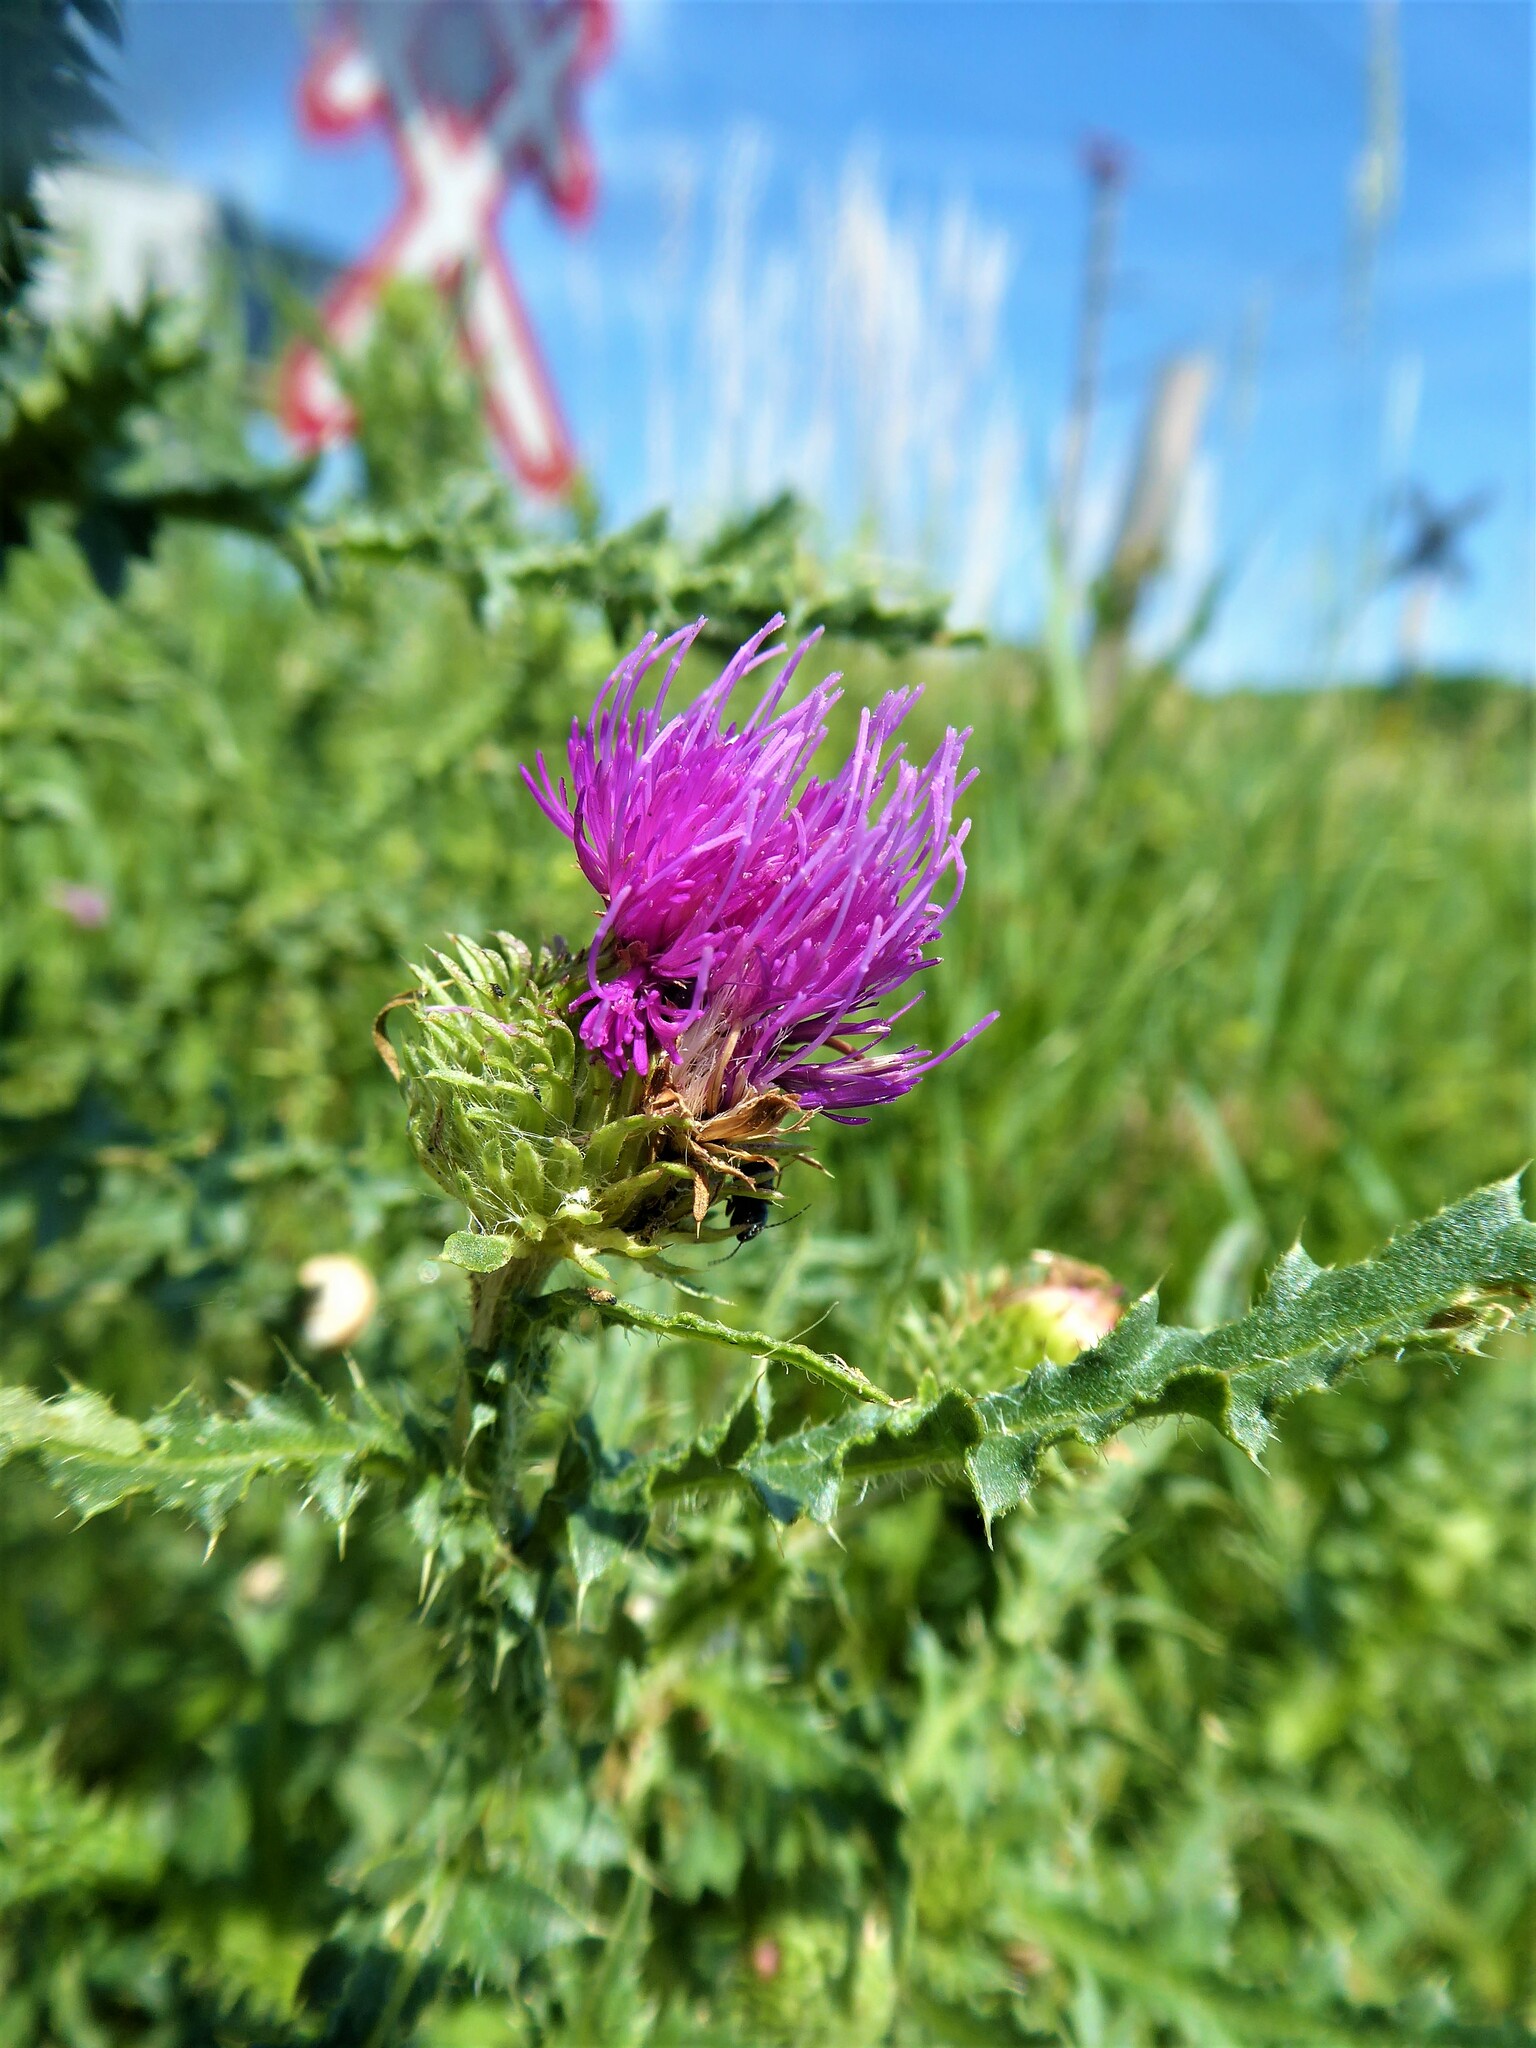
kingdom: Plantae
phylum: Tracheophyta
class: Magnoliopsida
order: Asterales
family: Asteraceae
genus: Carduus
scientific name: Carduus acanthoides
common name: Plumeless thistle
